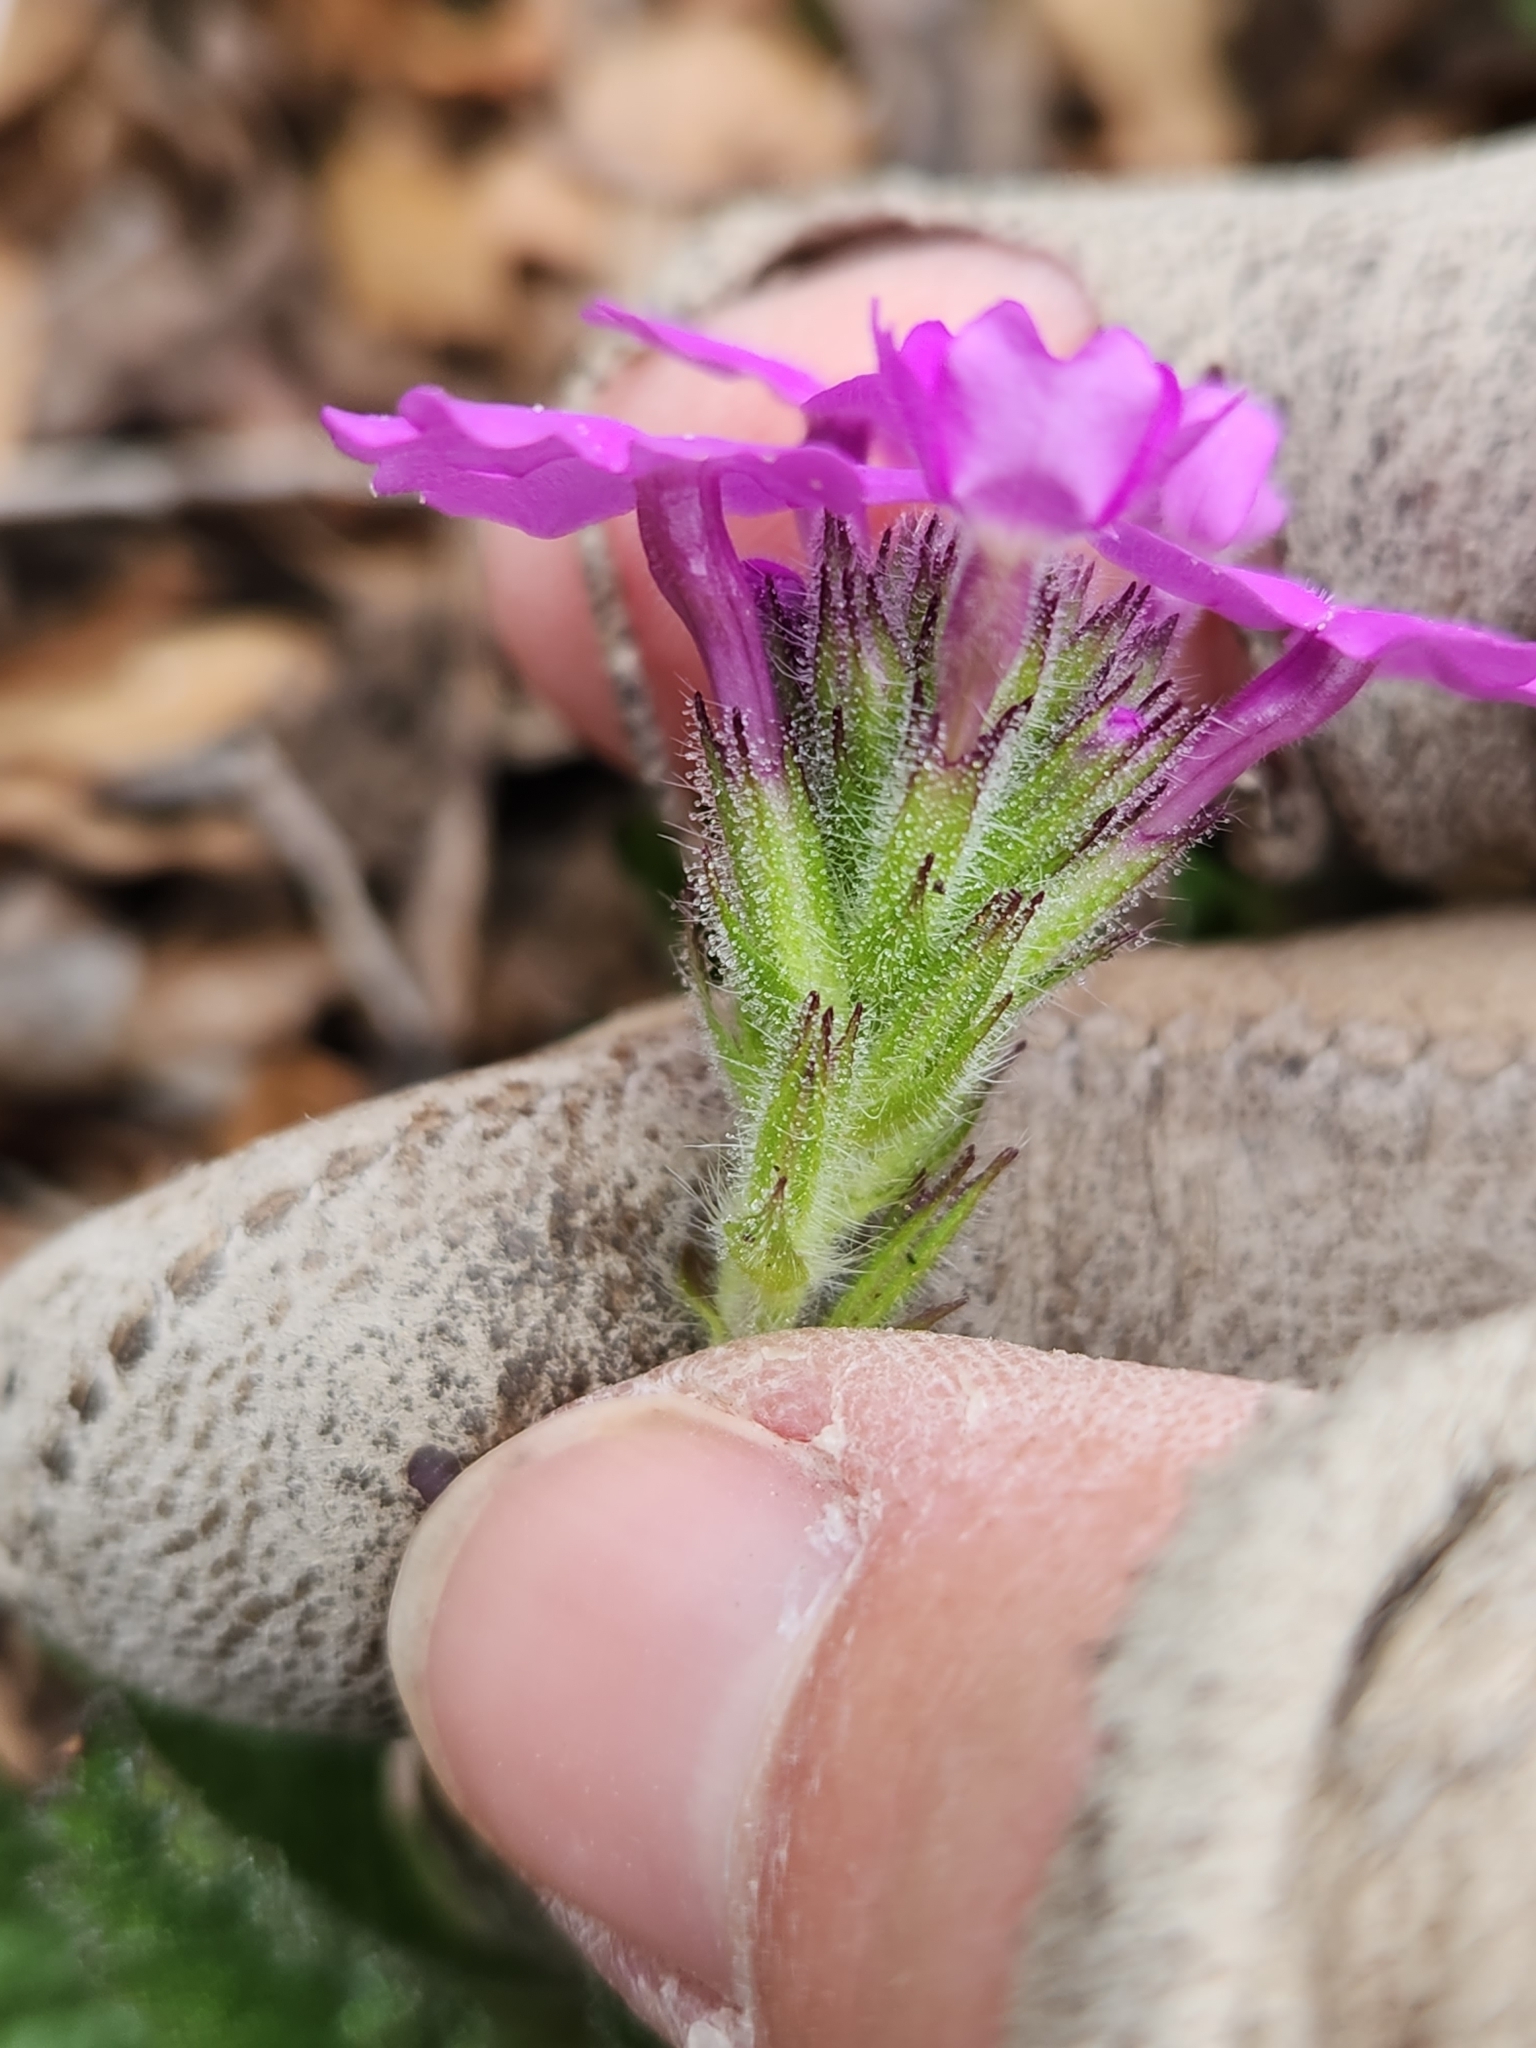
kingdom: Plantae
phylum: Tracheophyta
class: Magnoliopsida
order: Lamiales
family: Verbenaceae
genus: Verbena
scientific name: Verbena tumidula
